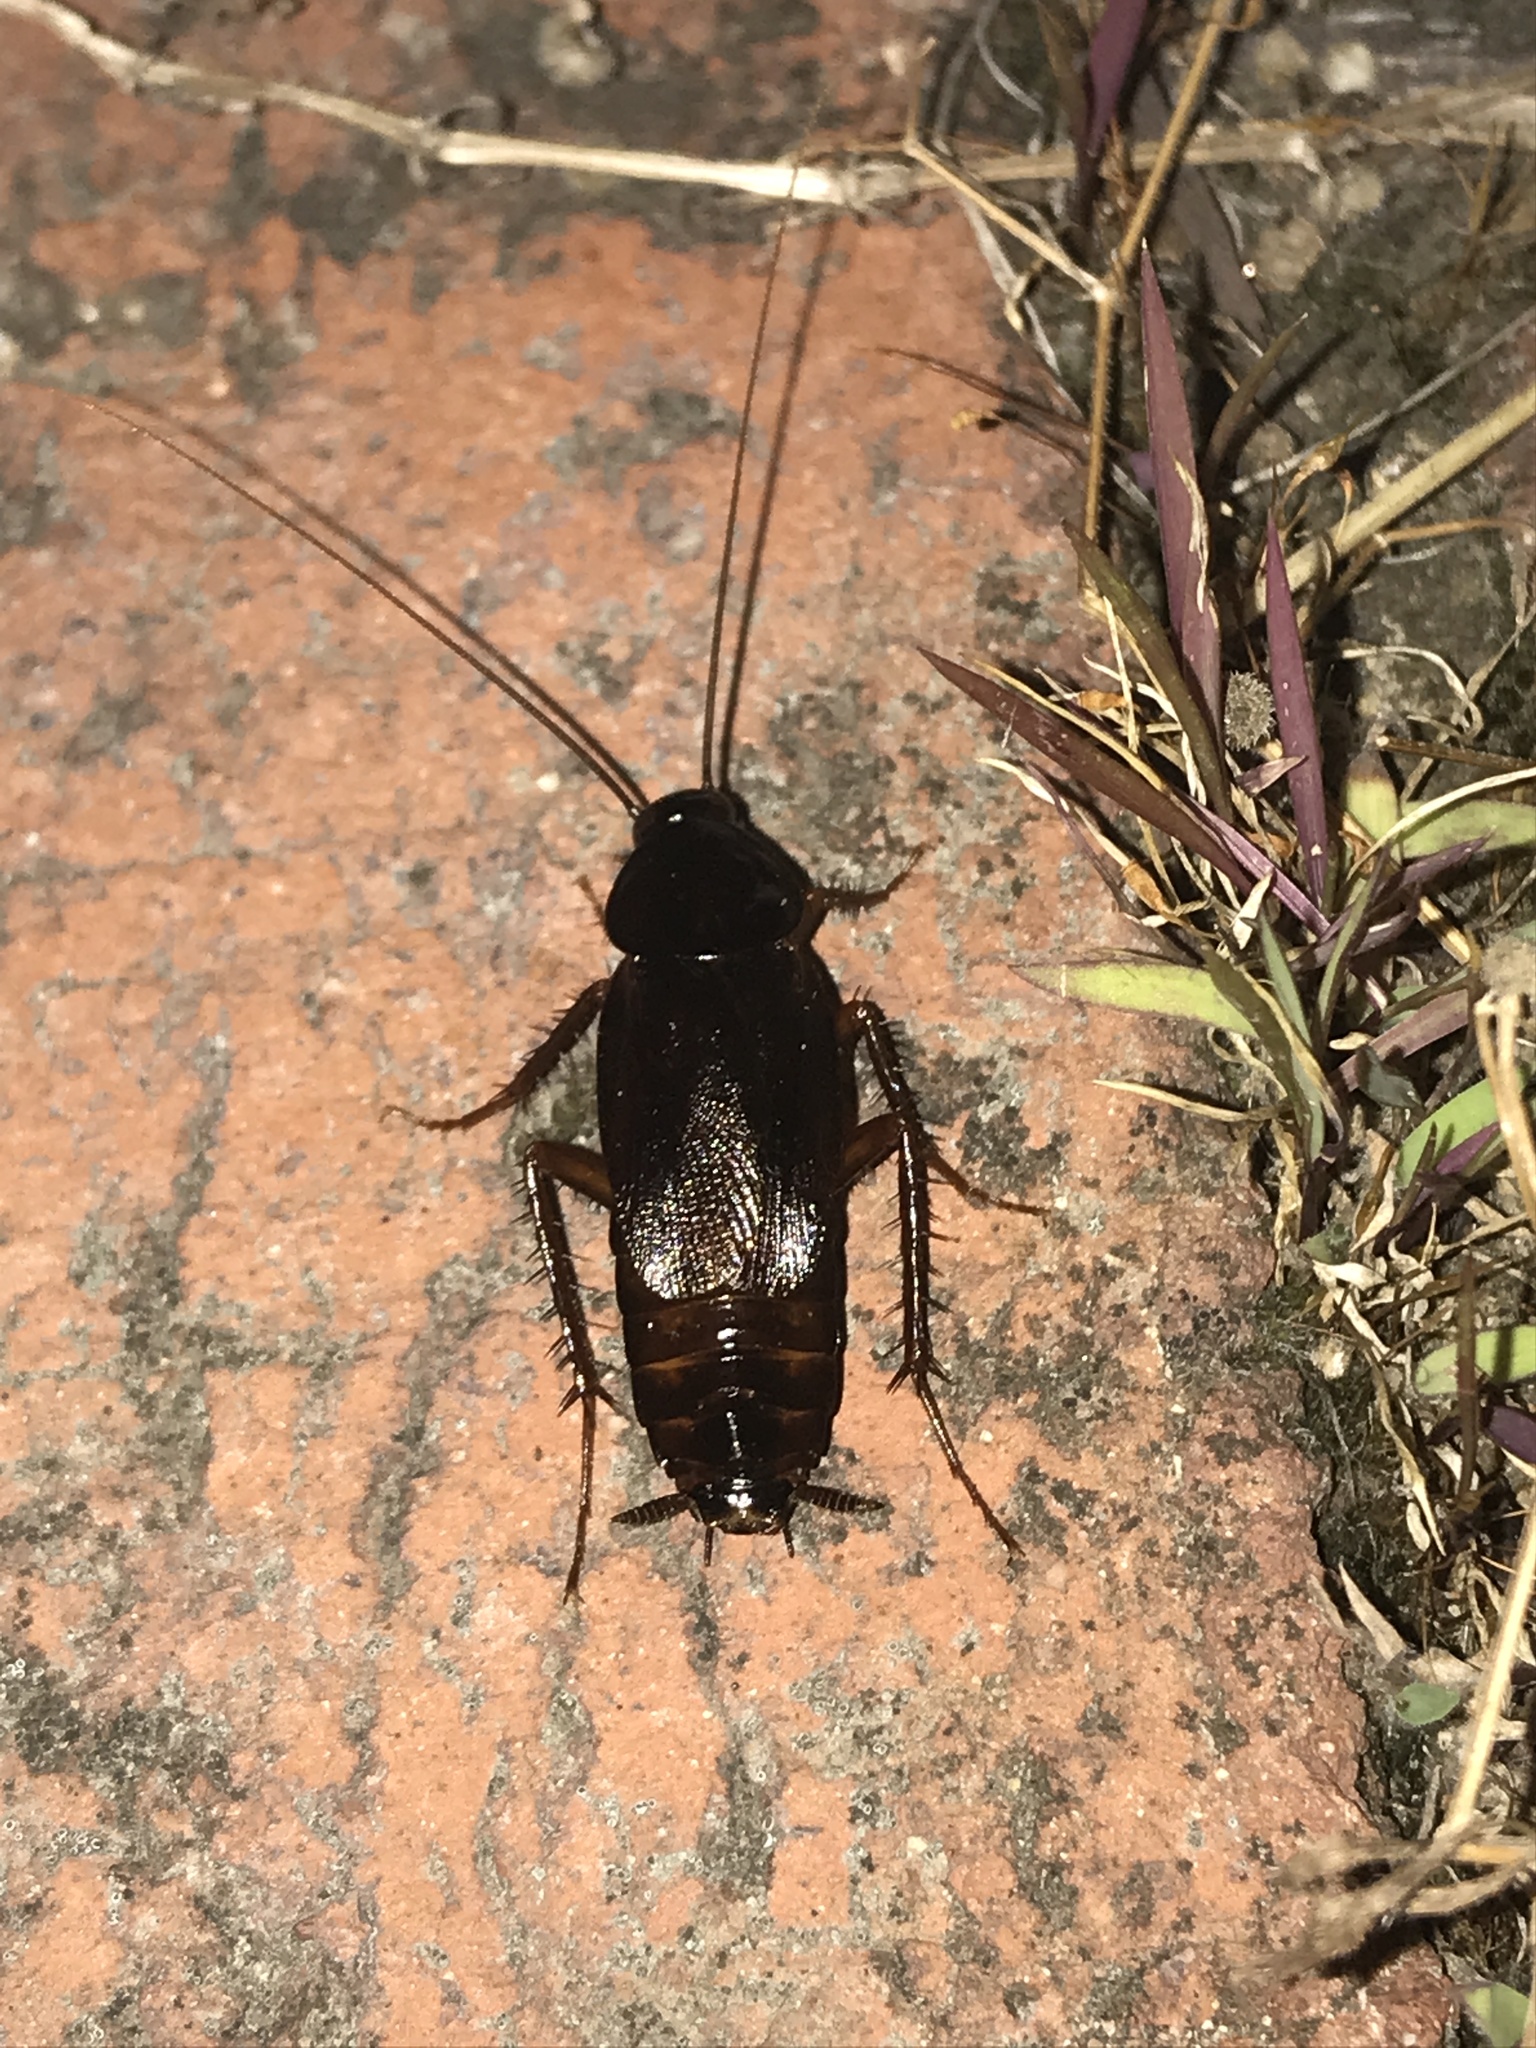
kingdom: Animalia
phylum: Arthropoda
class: Insecta
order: Blattodea
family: Blattidae
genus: Blatta
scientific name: Blatta orientalis
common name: Oriental cockroach
